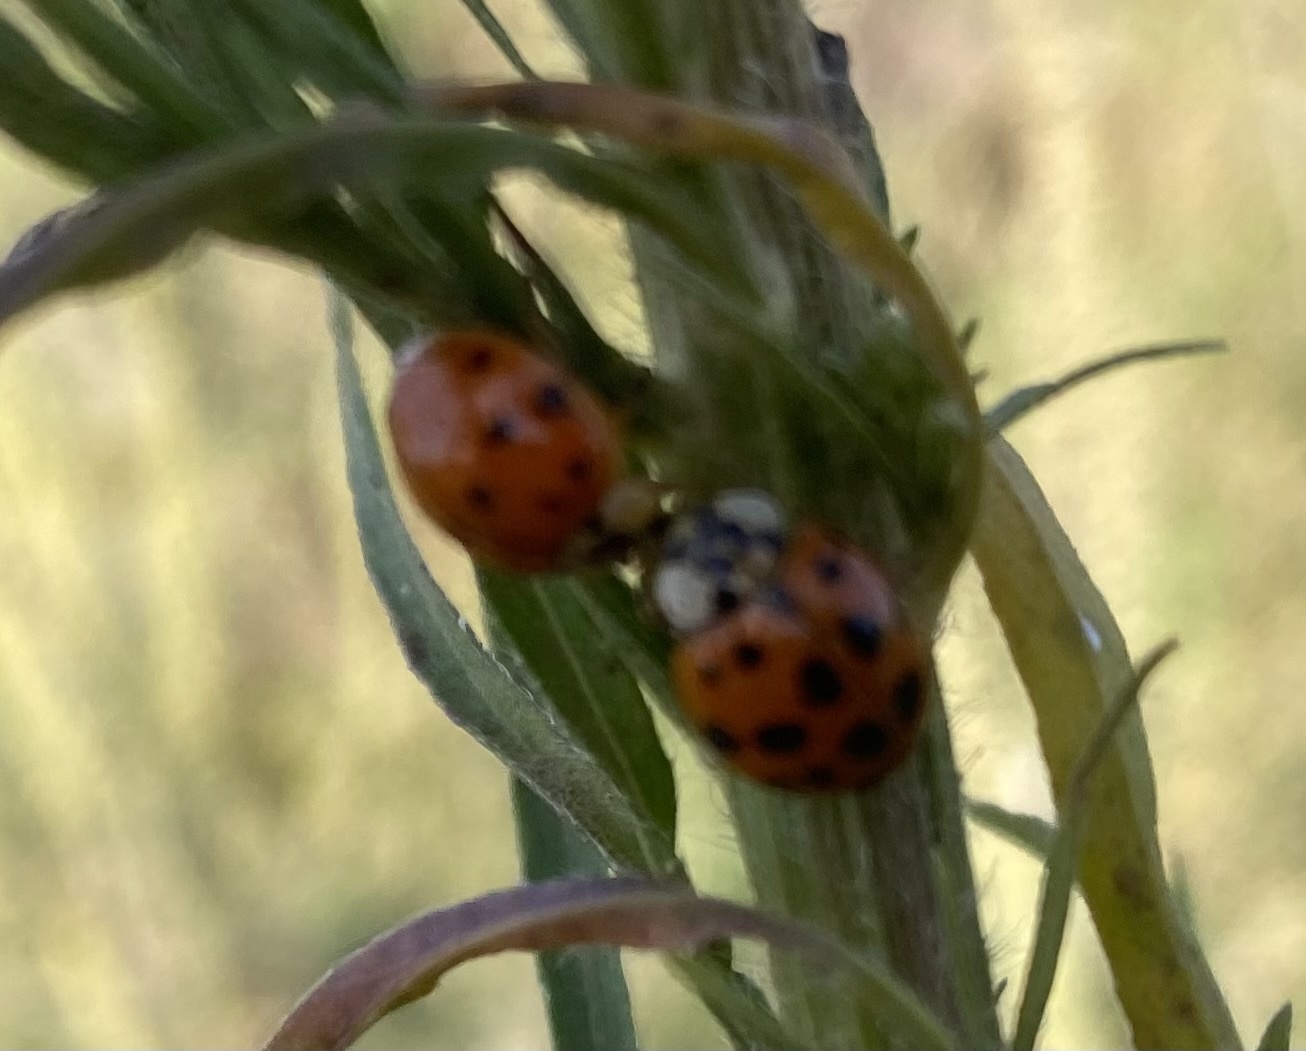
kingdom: Animalia
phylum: Arthropoda
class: Insecta
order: Coleoptera
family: Coccinellidae
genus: Harmonia
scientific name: Harmonia axyridis
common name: Harlequin ladybird
